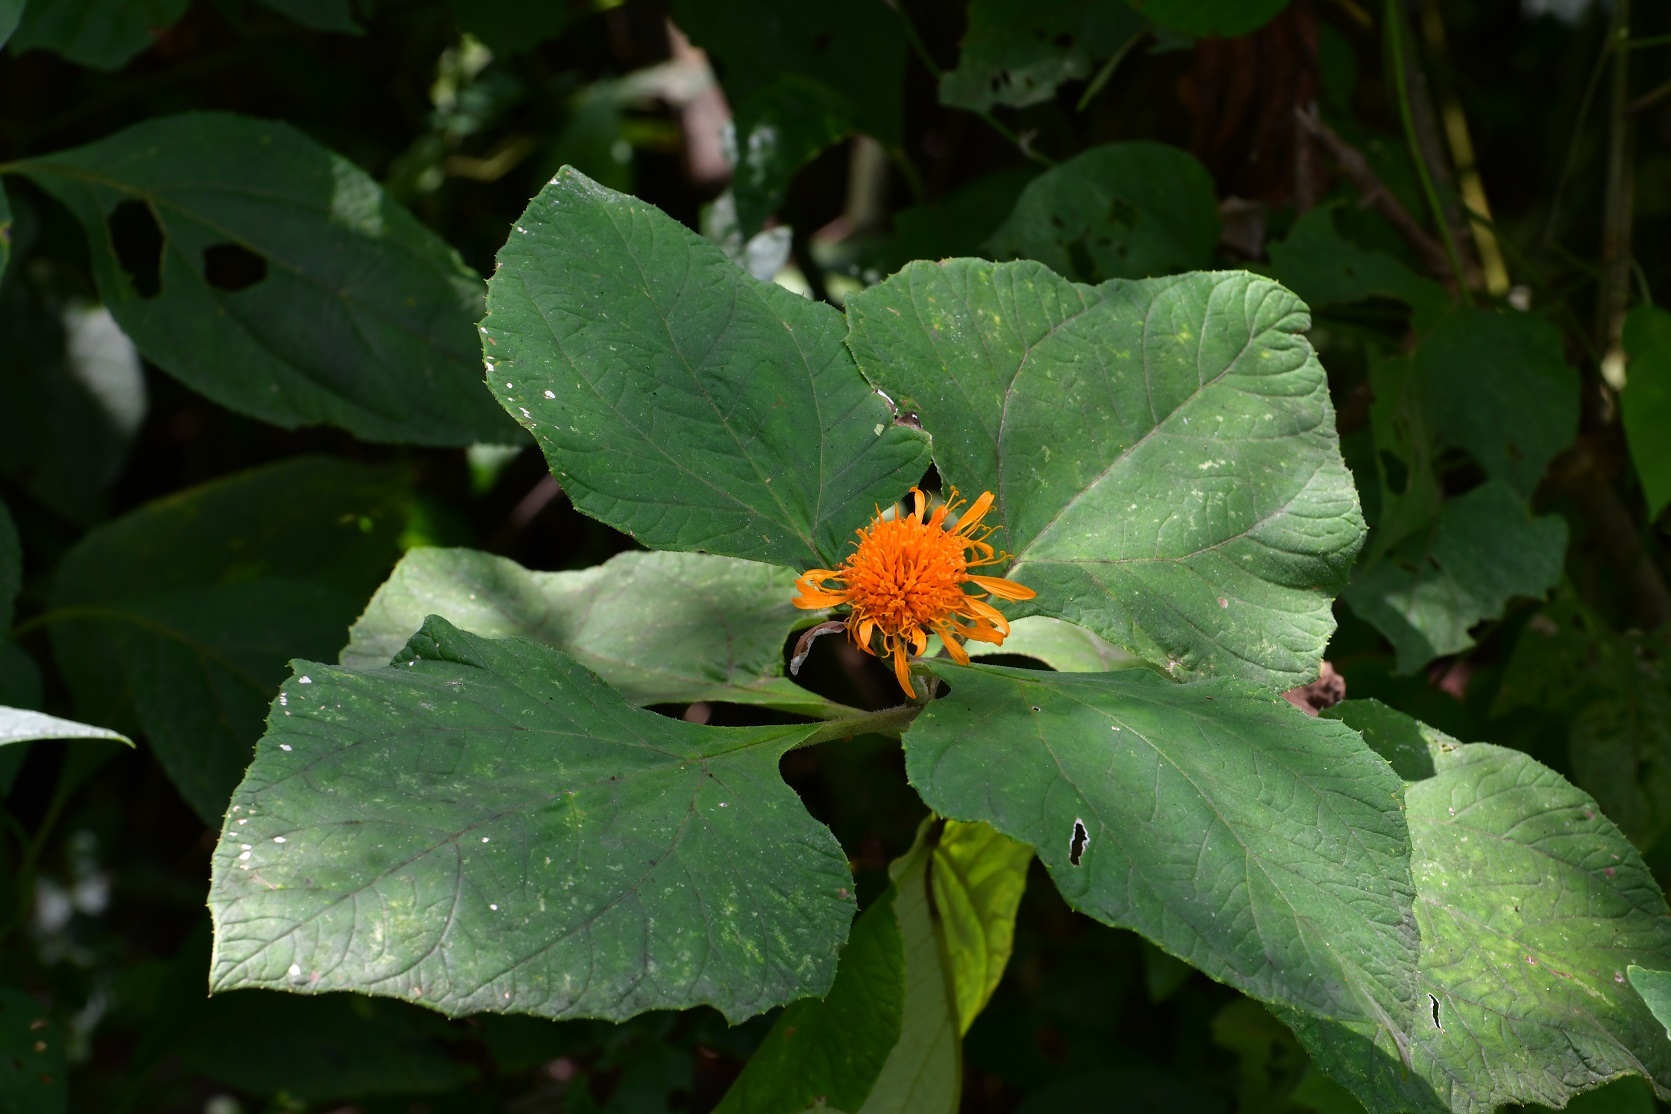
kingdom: Plantae
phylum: Tracheophyta
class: Magnoliopsida
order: Asterales
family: Asteraceae
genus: Sinclairia
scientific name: Sinclairia andrieuxii
